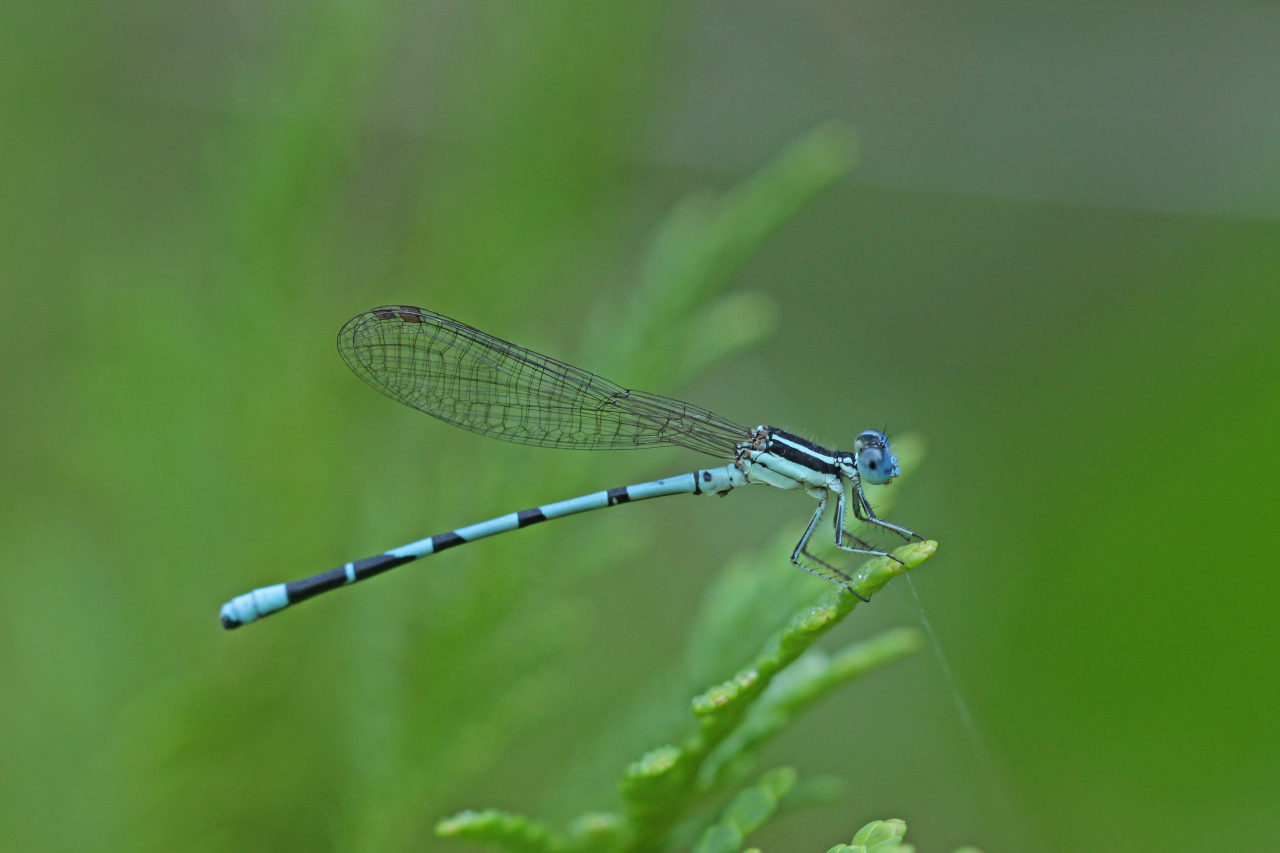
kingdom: Animalia
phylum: Arthropoda
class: Insecta
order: Odonata
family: Coenagrionidae
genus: Argia
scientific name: Argia bipunctulata
